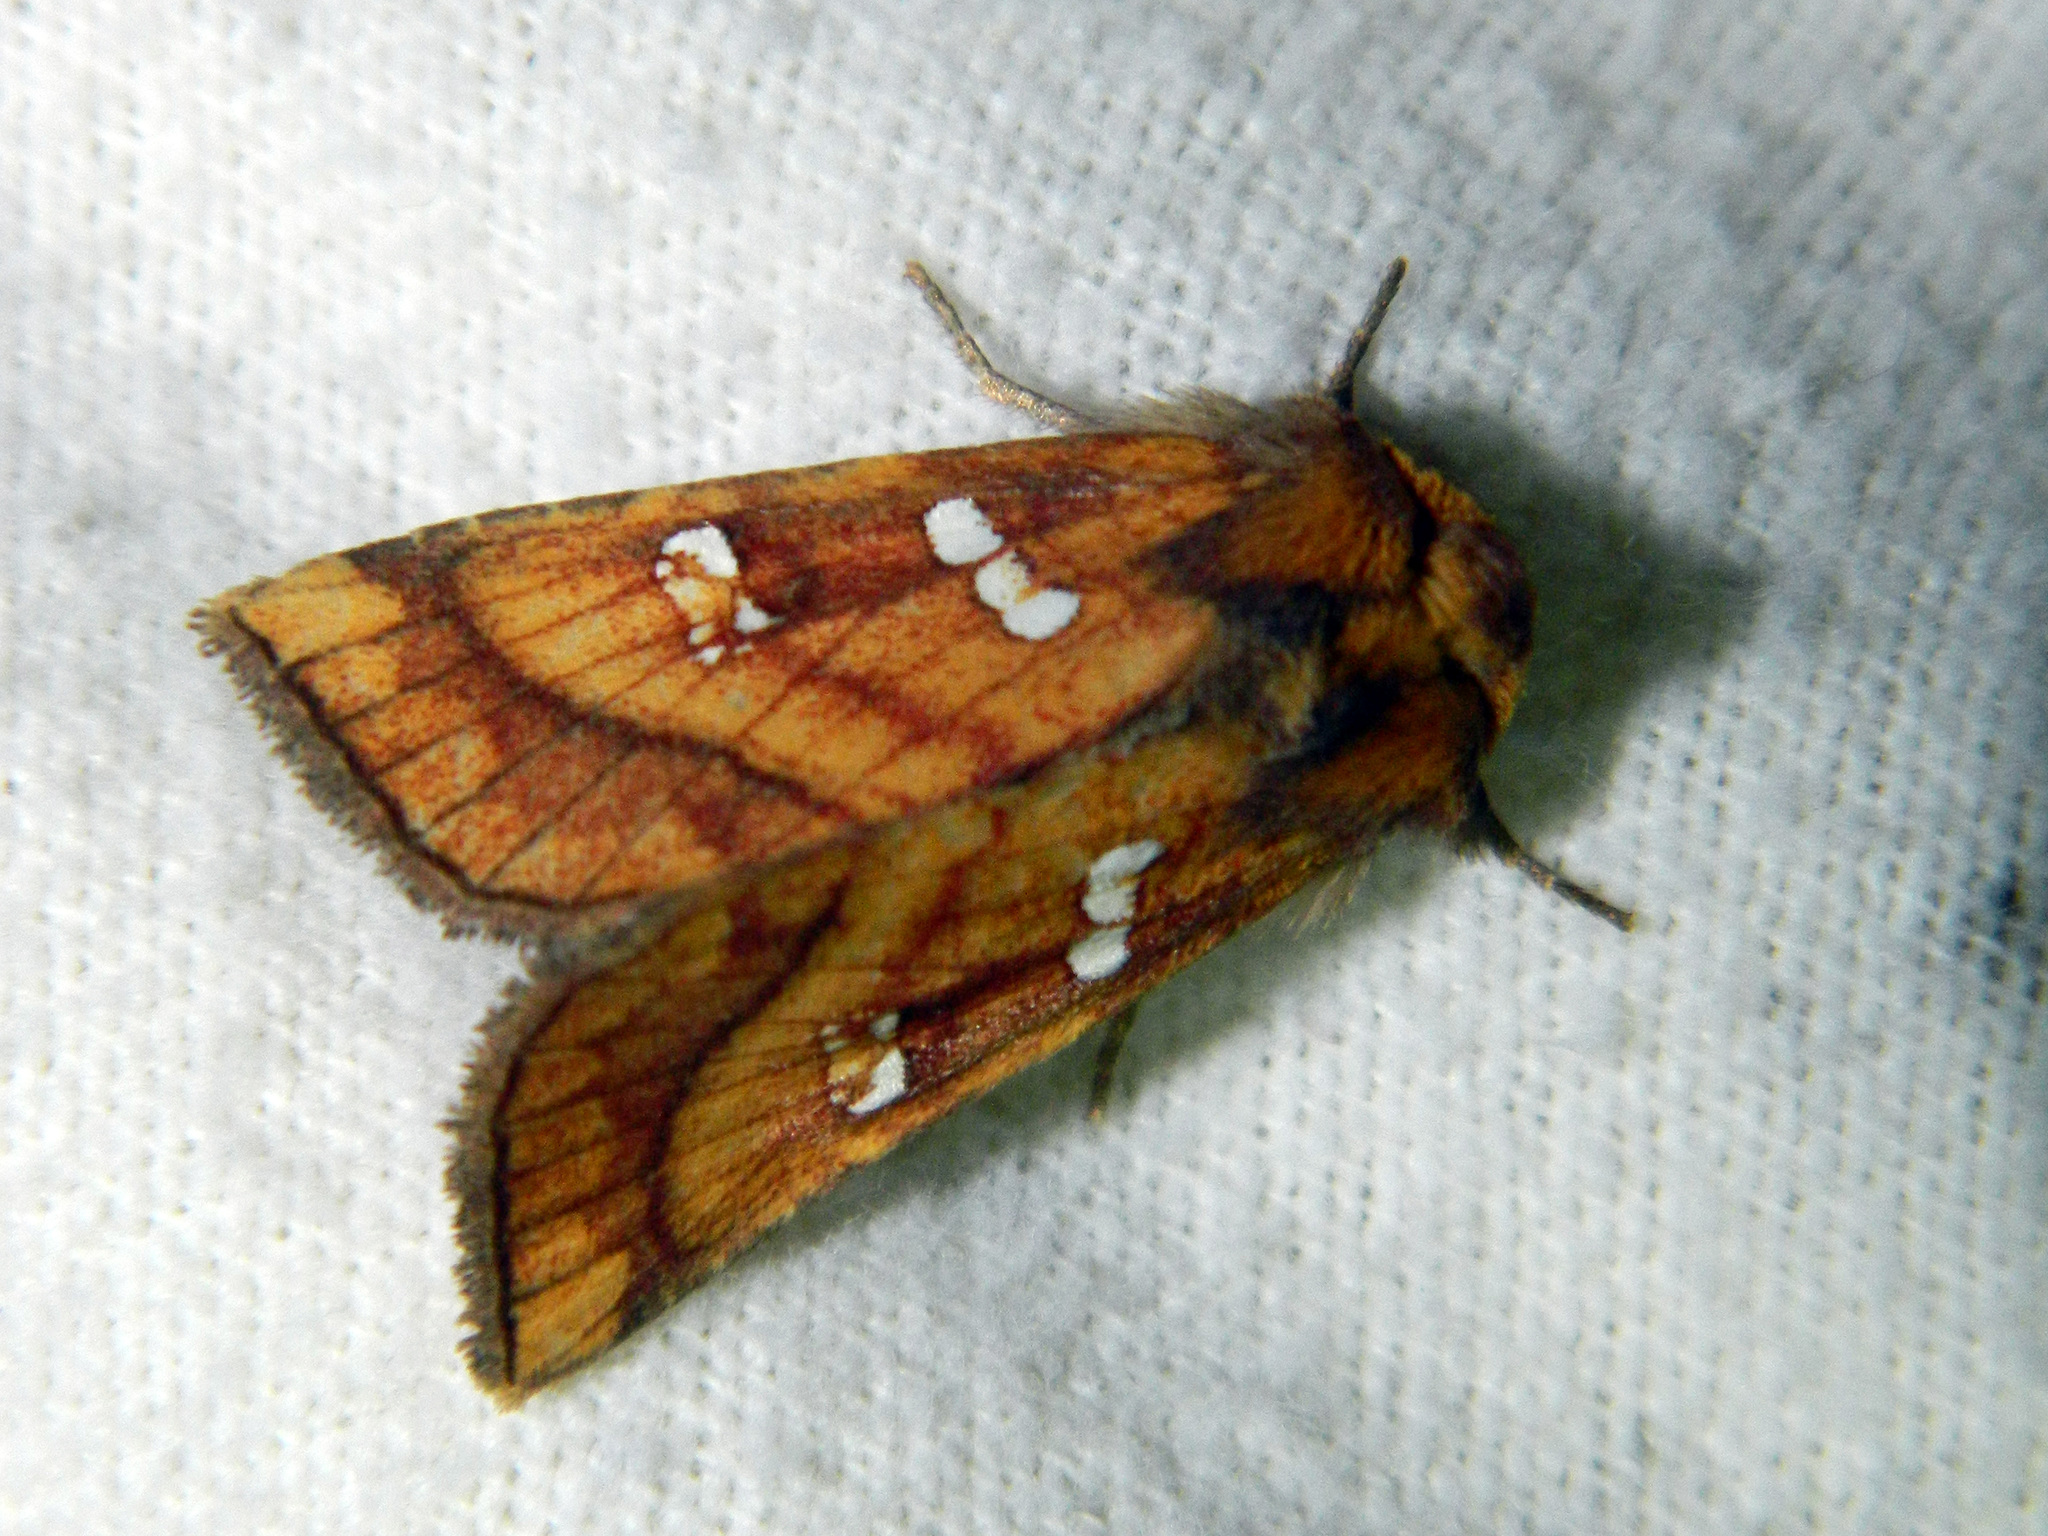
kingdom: Animalia
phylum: Arthropoda
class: Insecta
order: Lepidoptera
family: Noctuidae
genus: Papaipema
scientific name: Papaipema pterisii
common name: Bracken borer moth
